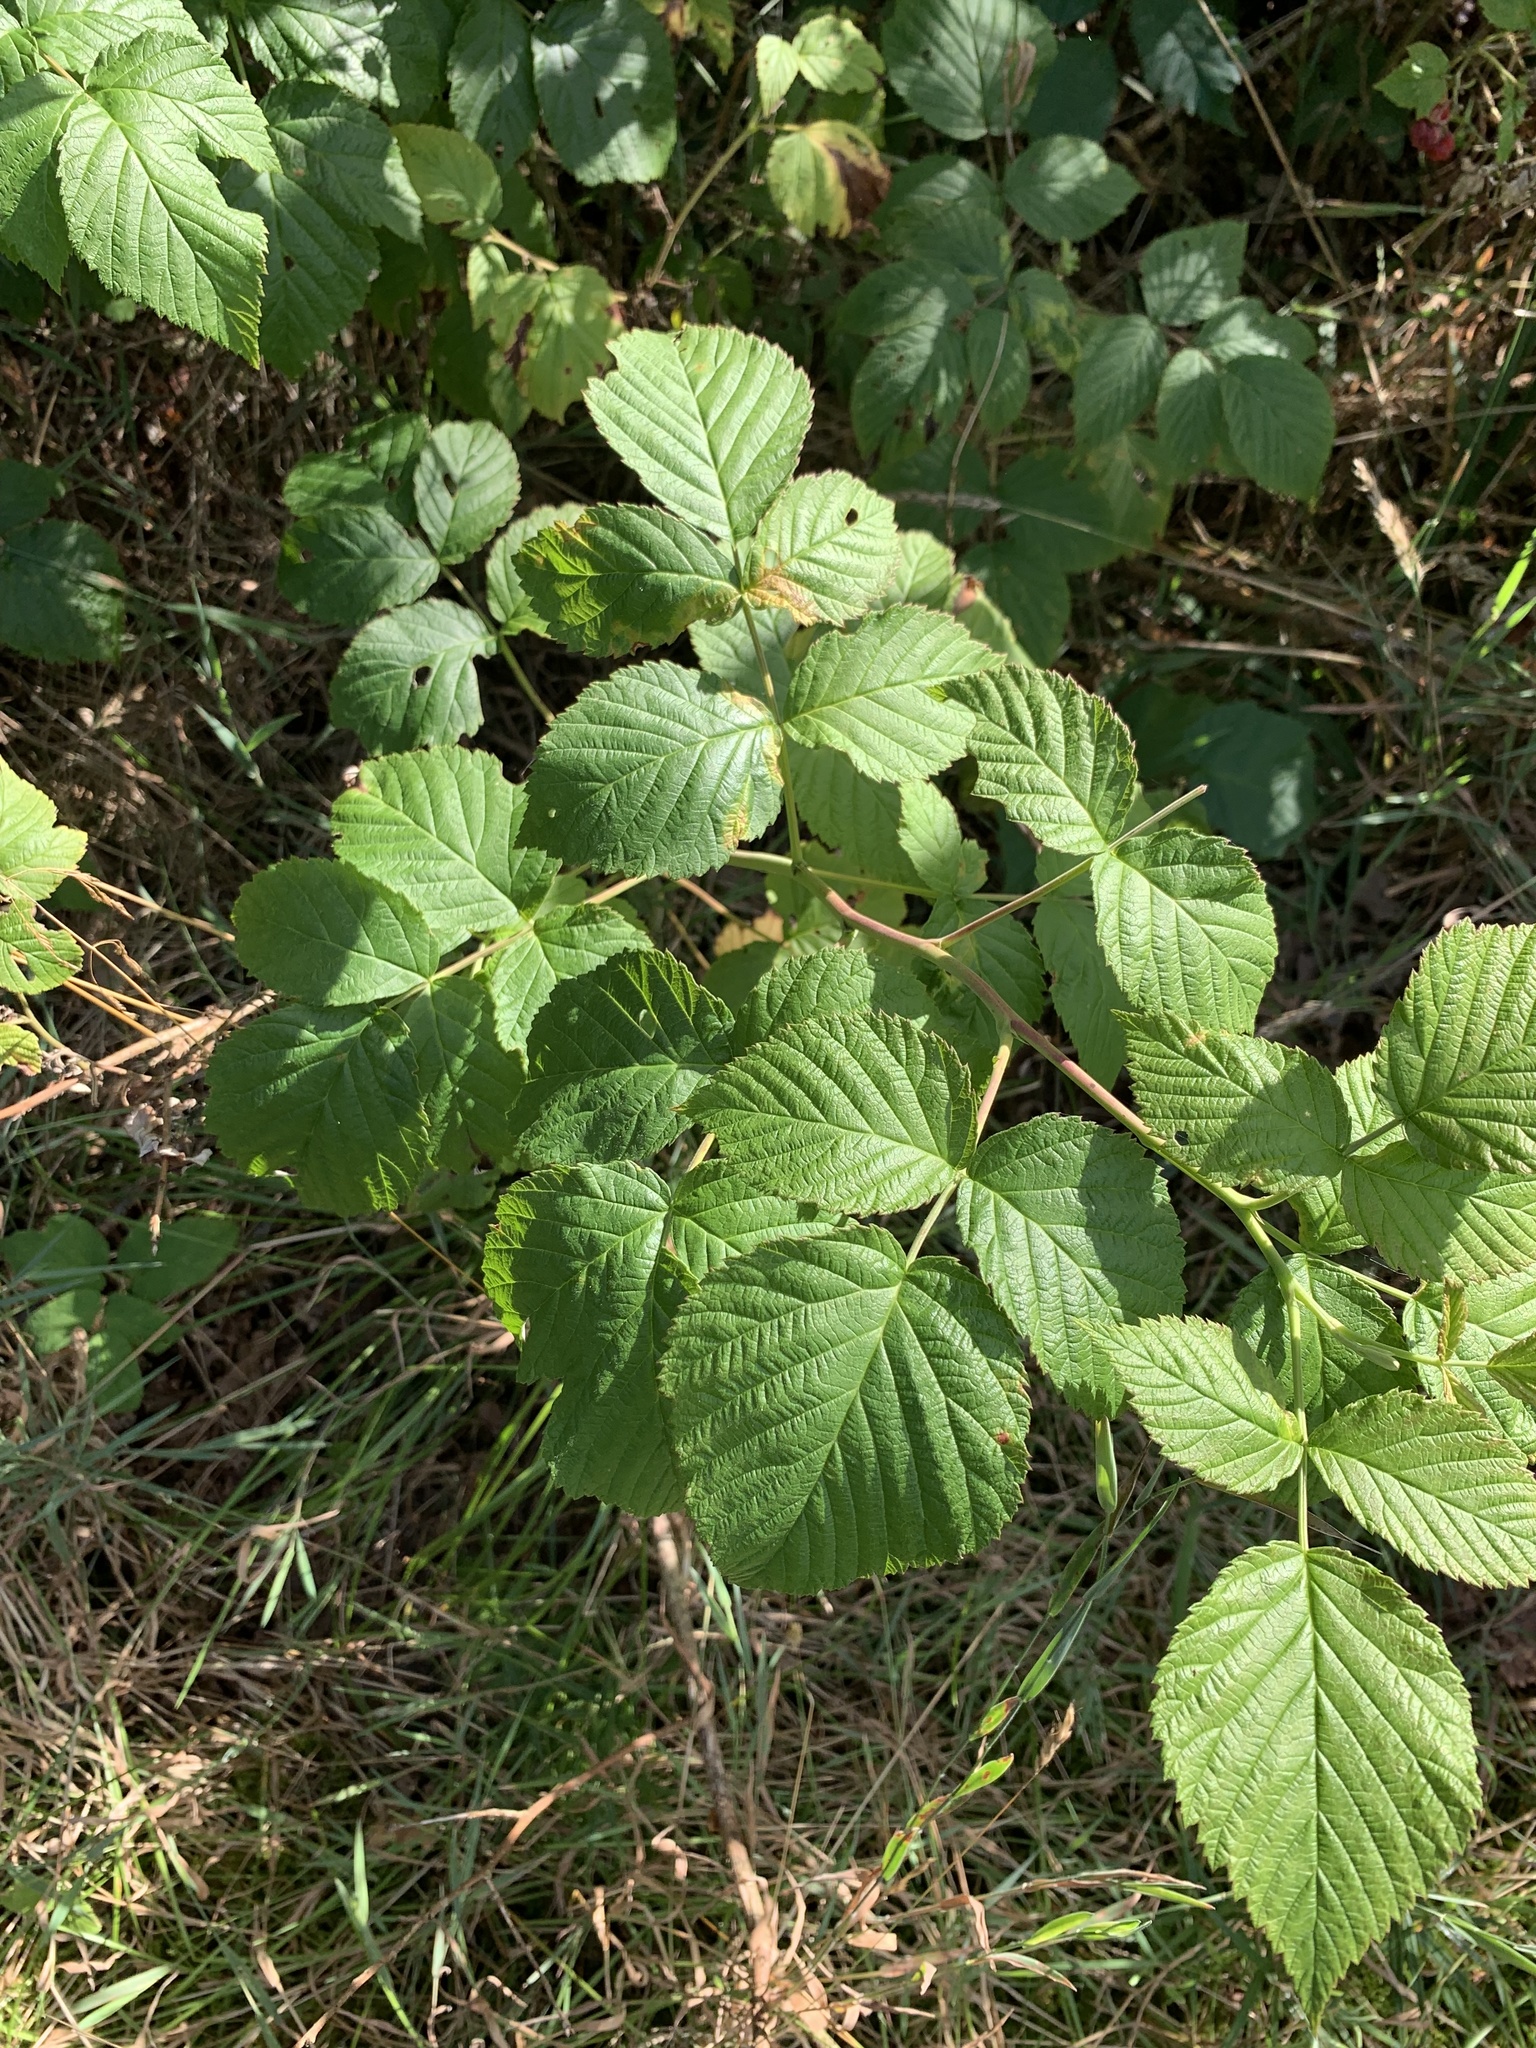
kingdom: Plantae
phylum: Tracheophyta
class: Magnoliopsida
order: Rosales
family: Rosaceae
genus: Rubus
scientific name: Rubus idaeus
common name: Raspberry
